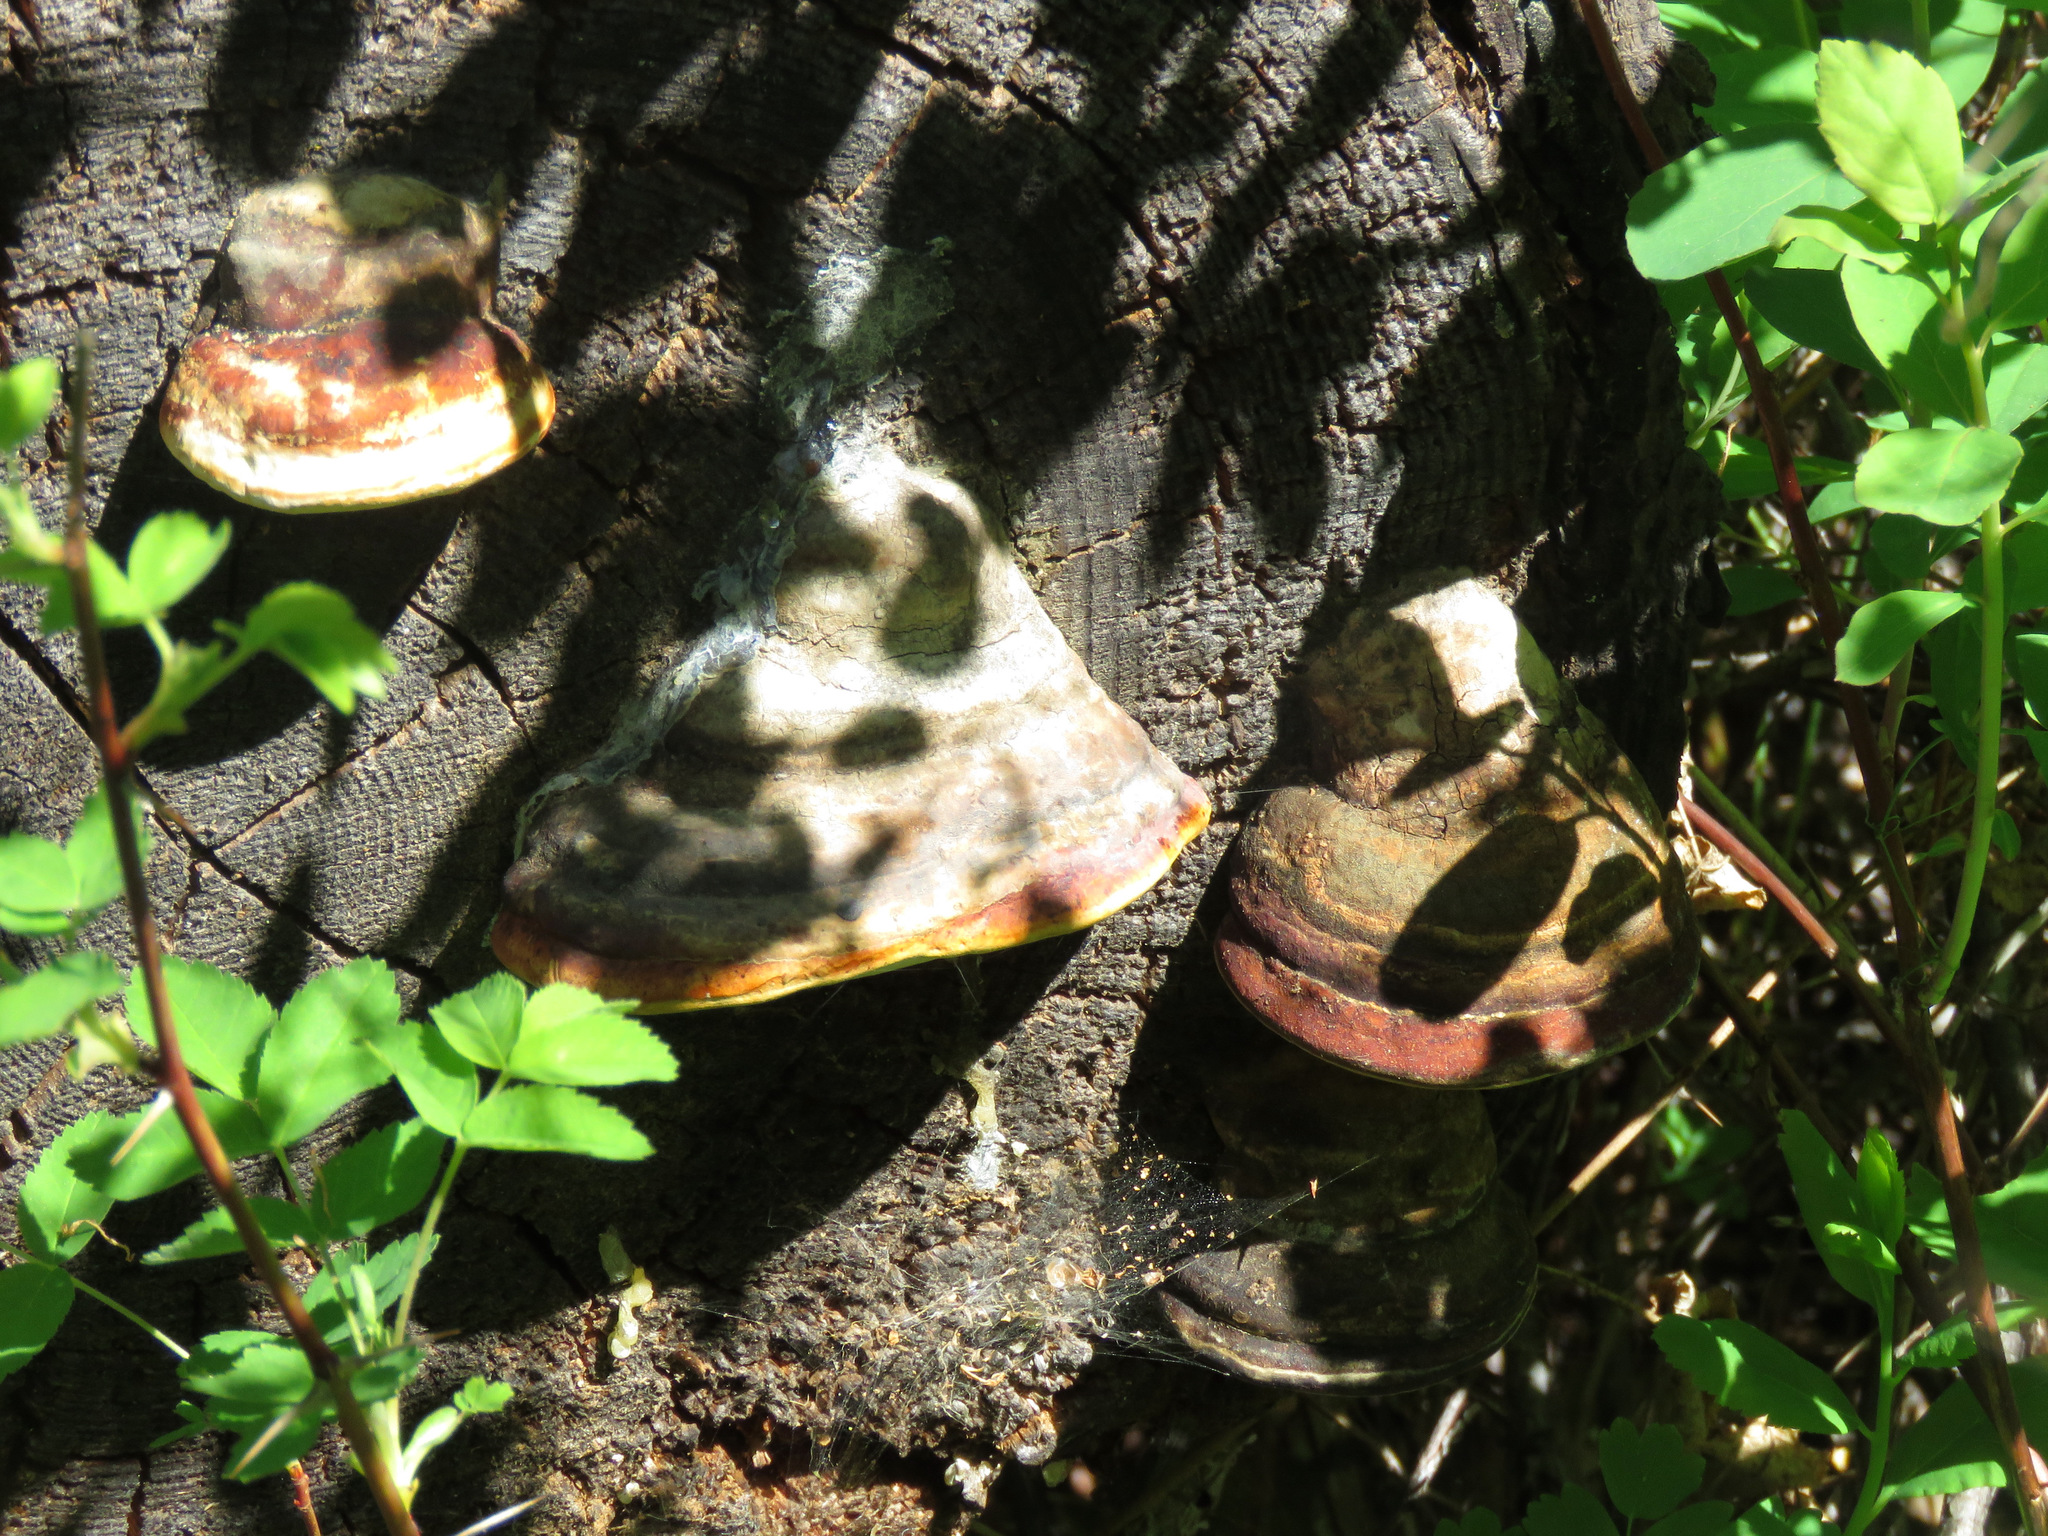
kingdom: Fungi
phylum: Basidiomycota
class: Agaricomycetes
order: Polyporales
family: Fomitopsidaceae
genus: Fomitopsis
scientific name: Fomitopsis mounceae
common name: Northern red belt
